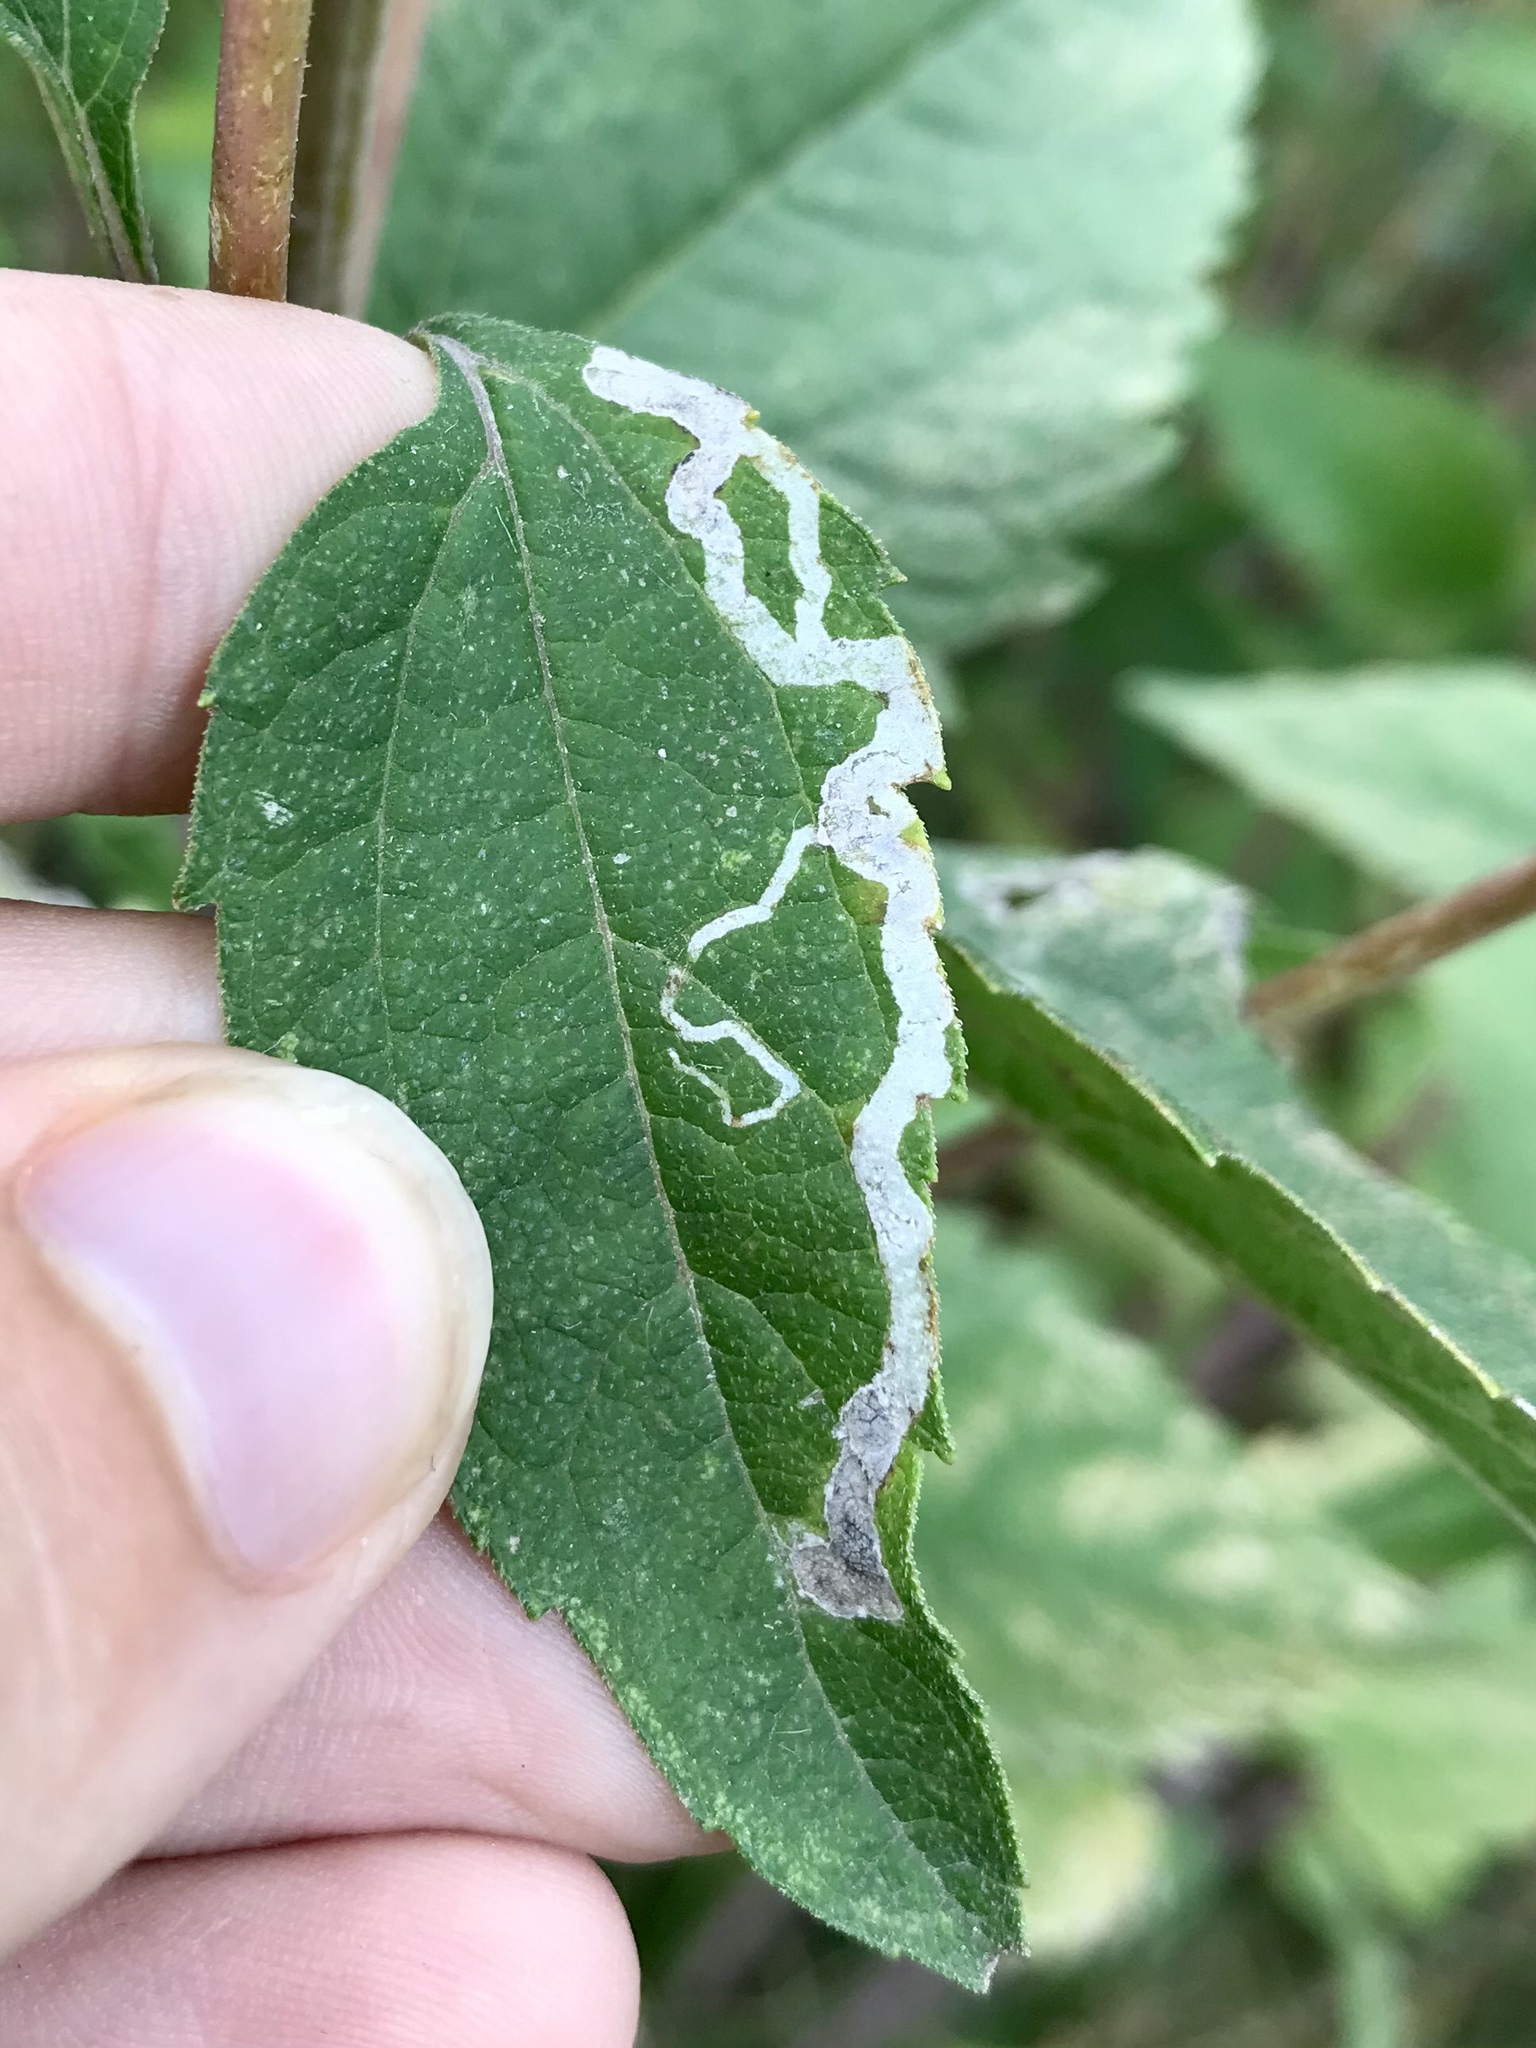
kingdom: Animalia
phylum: Arthropoda
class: Insecta
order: Diptera
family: Agromyzidae
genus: Liriomyza
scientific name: Liriomyza arctii
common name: Burdock leafminer
